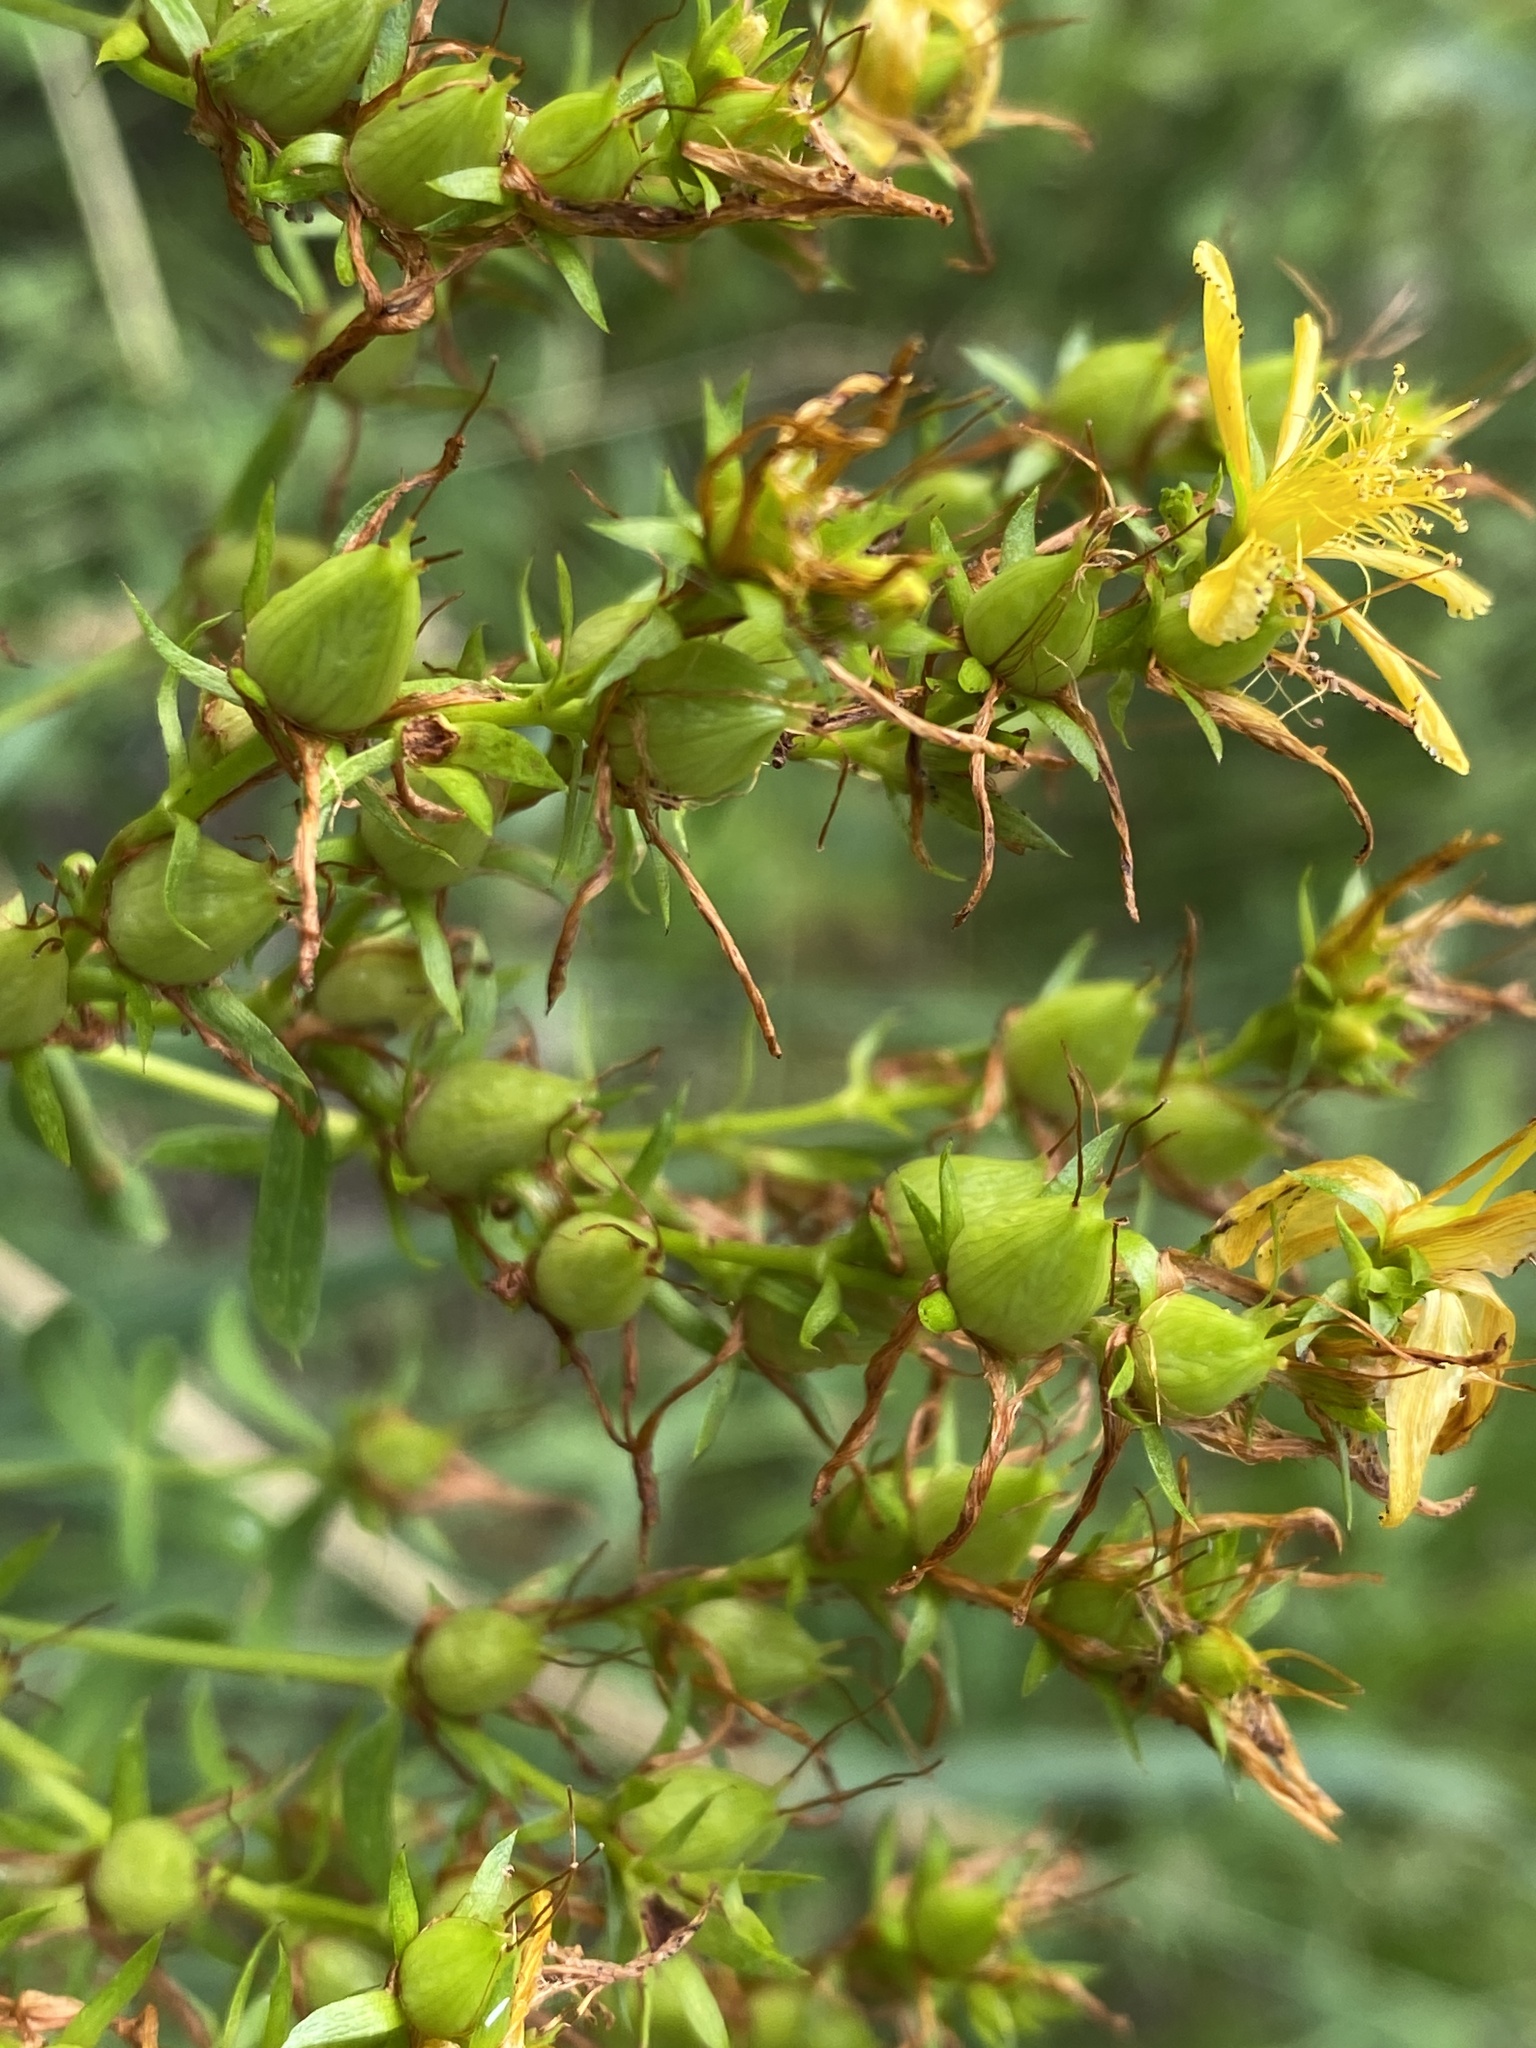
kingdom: Plantae
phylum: Tracheophyta
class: Magnoliopsida
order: Malpighiales
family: Hypericaceae
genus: Hypericum
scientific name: Hypericum perforatum
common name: Common st. johnswort
